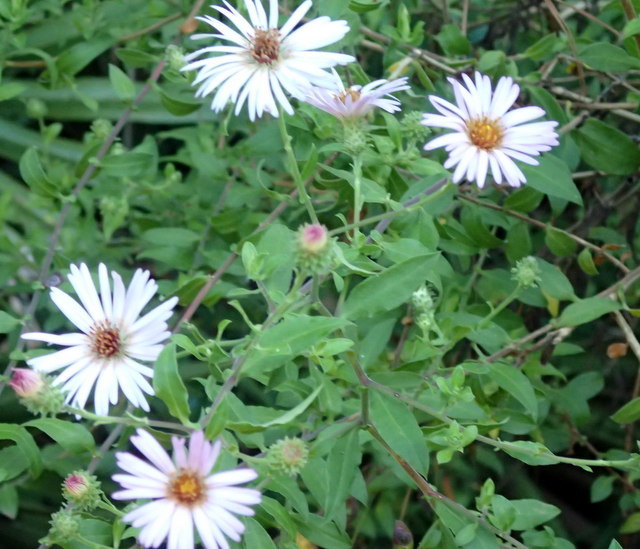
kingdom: Plantae
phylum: Tracheophyta
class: Magnoliopsida
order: Asterales
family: Asteraceae
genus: Ampelaster
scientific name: Ampelaster carolinianus
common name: Climbing aster
